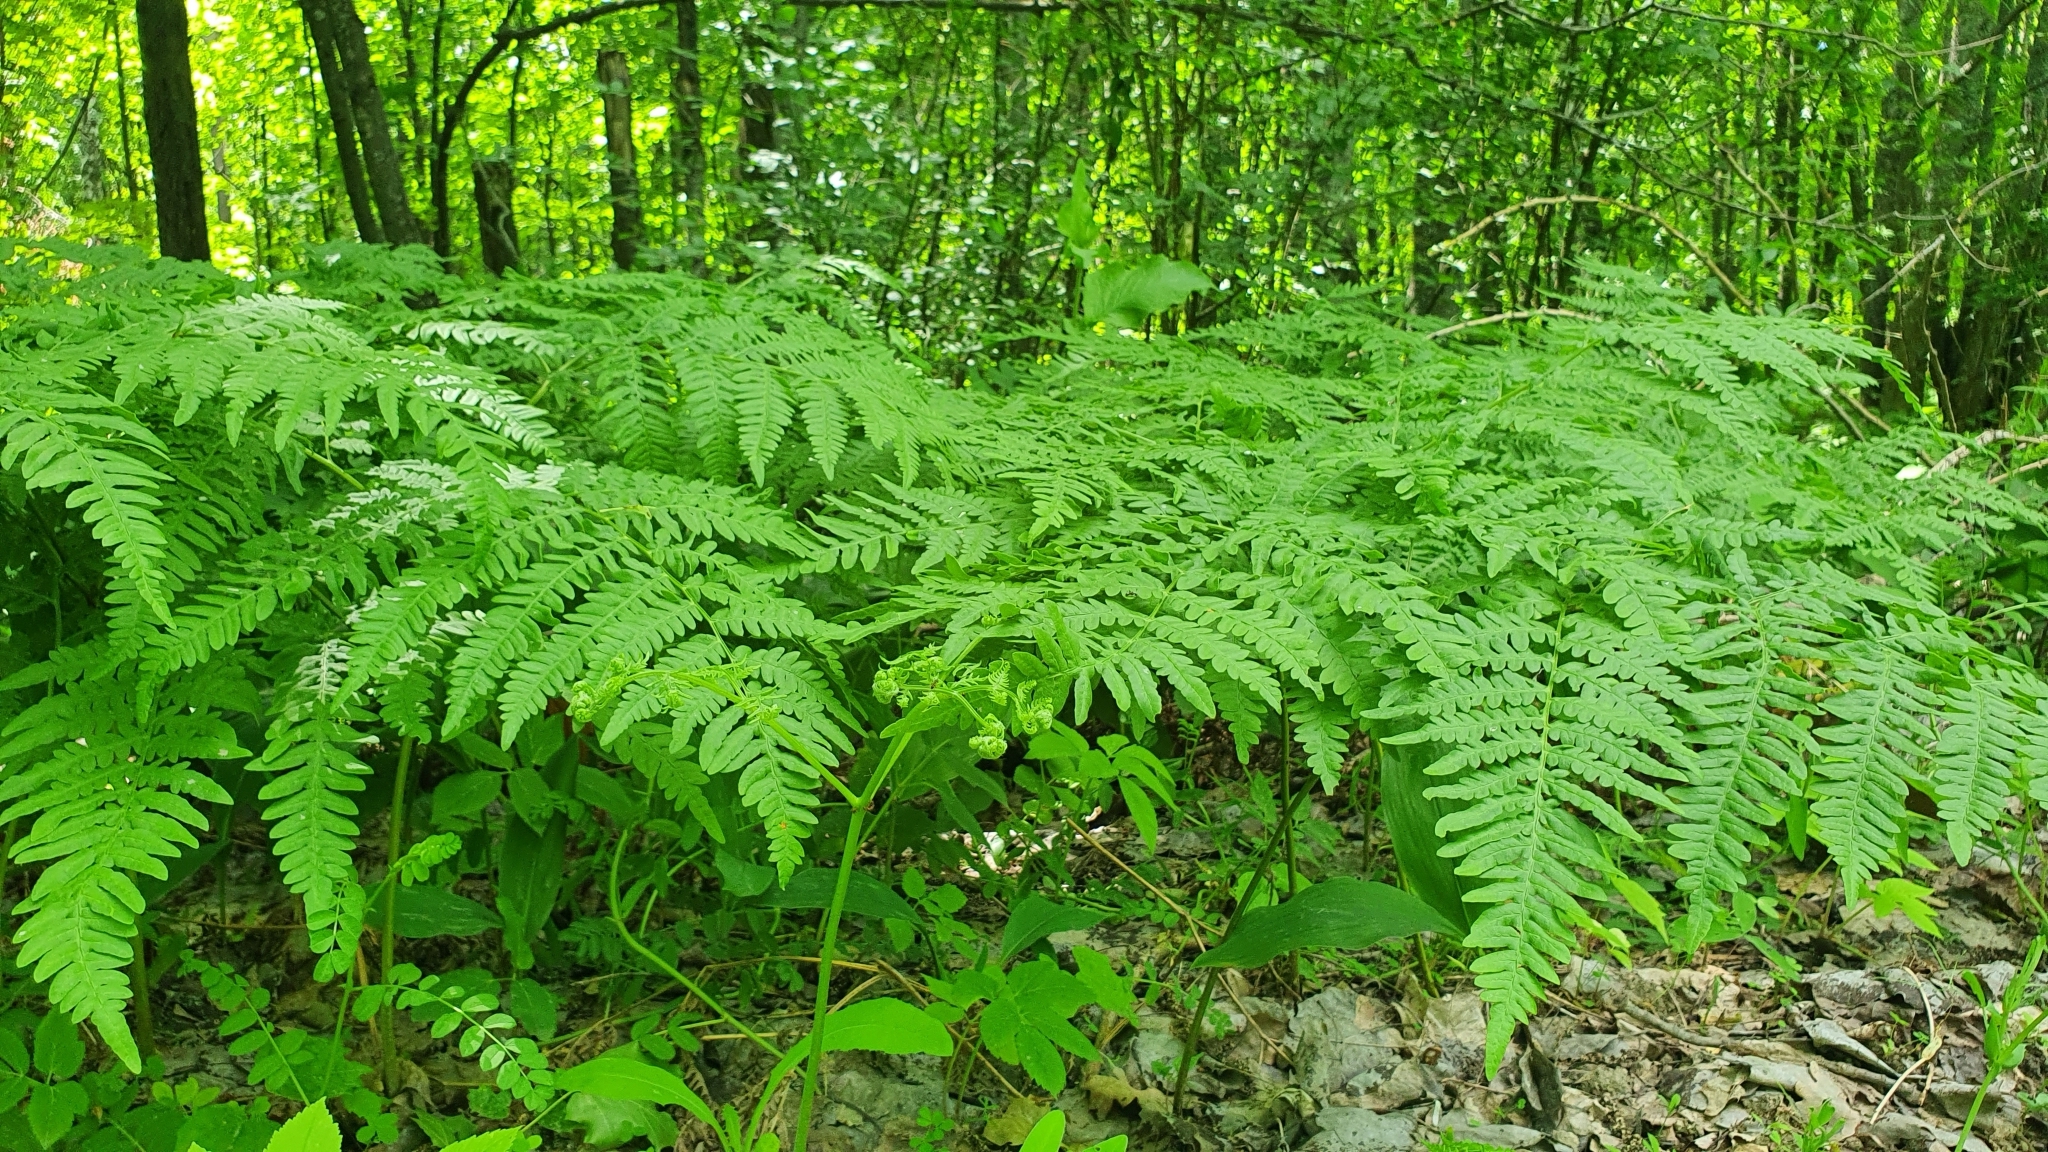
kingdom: Plantae
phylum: Tracheophyta
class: Polypodiopsida
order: Polypodiales
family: Dennstaedtiaceae
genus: Pteridium
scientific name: Pteridium aquilinum
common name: Bracken
